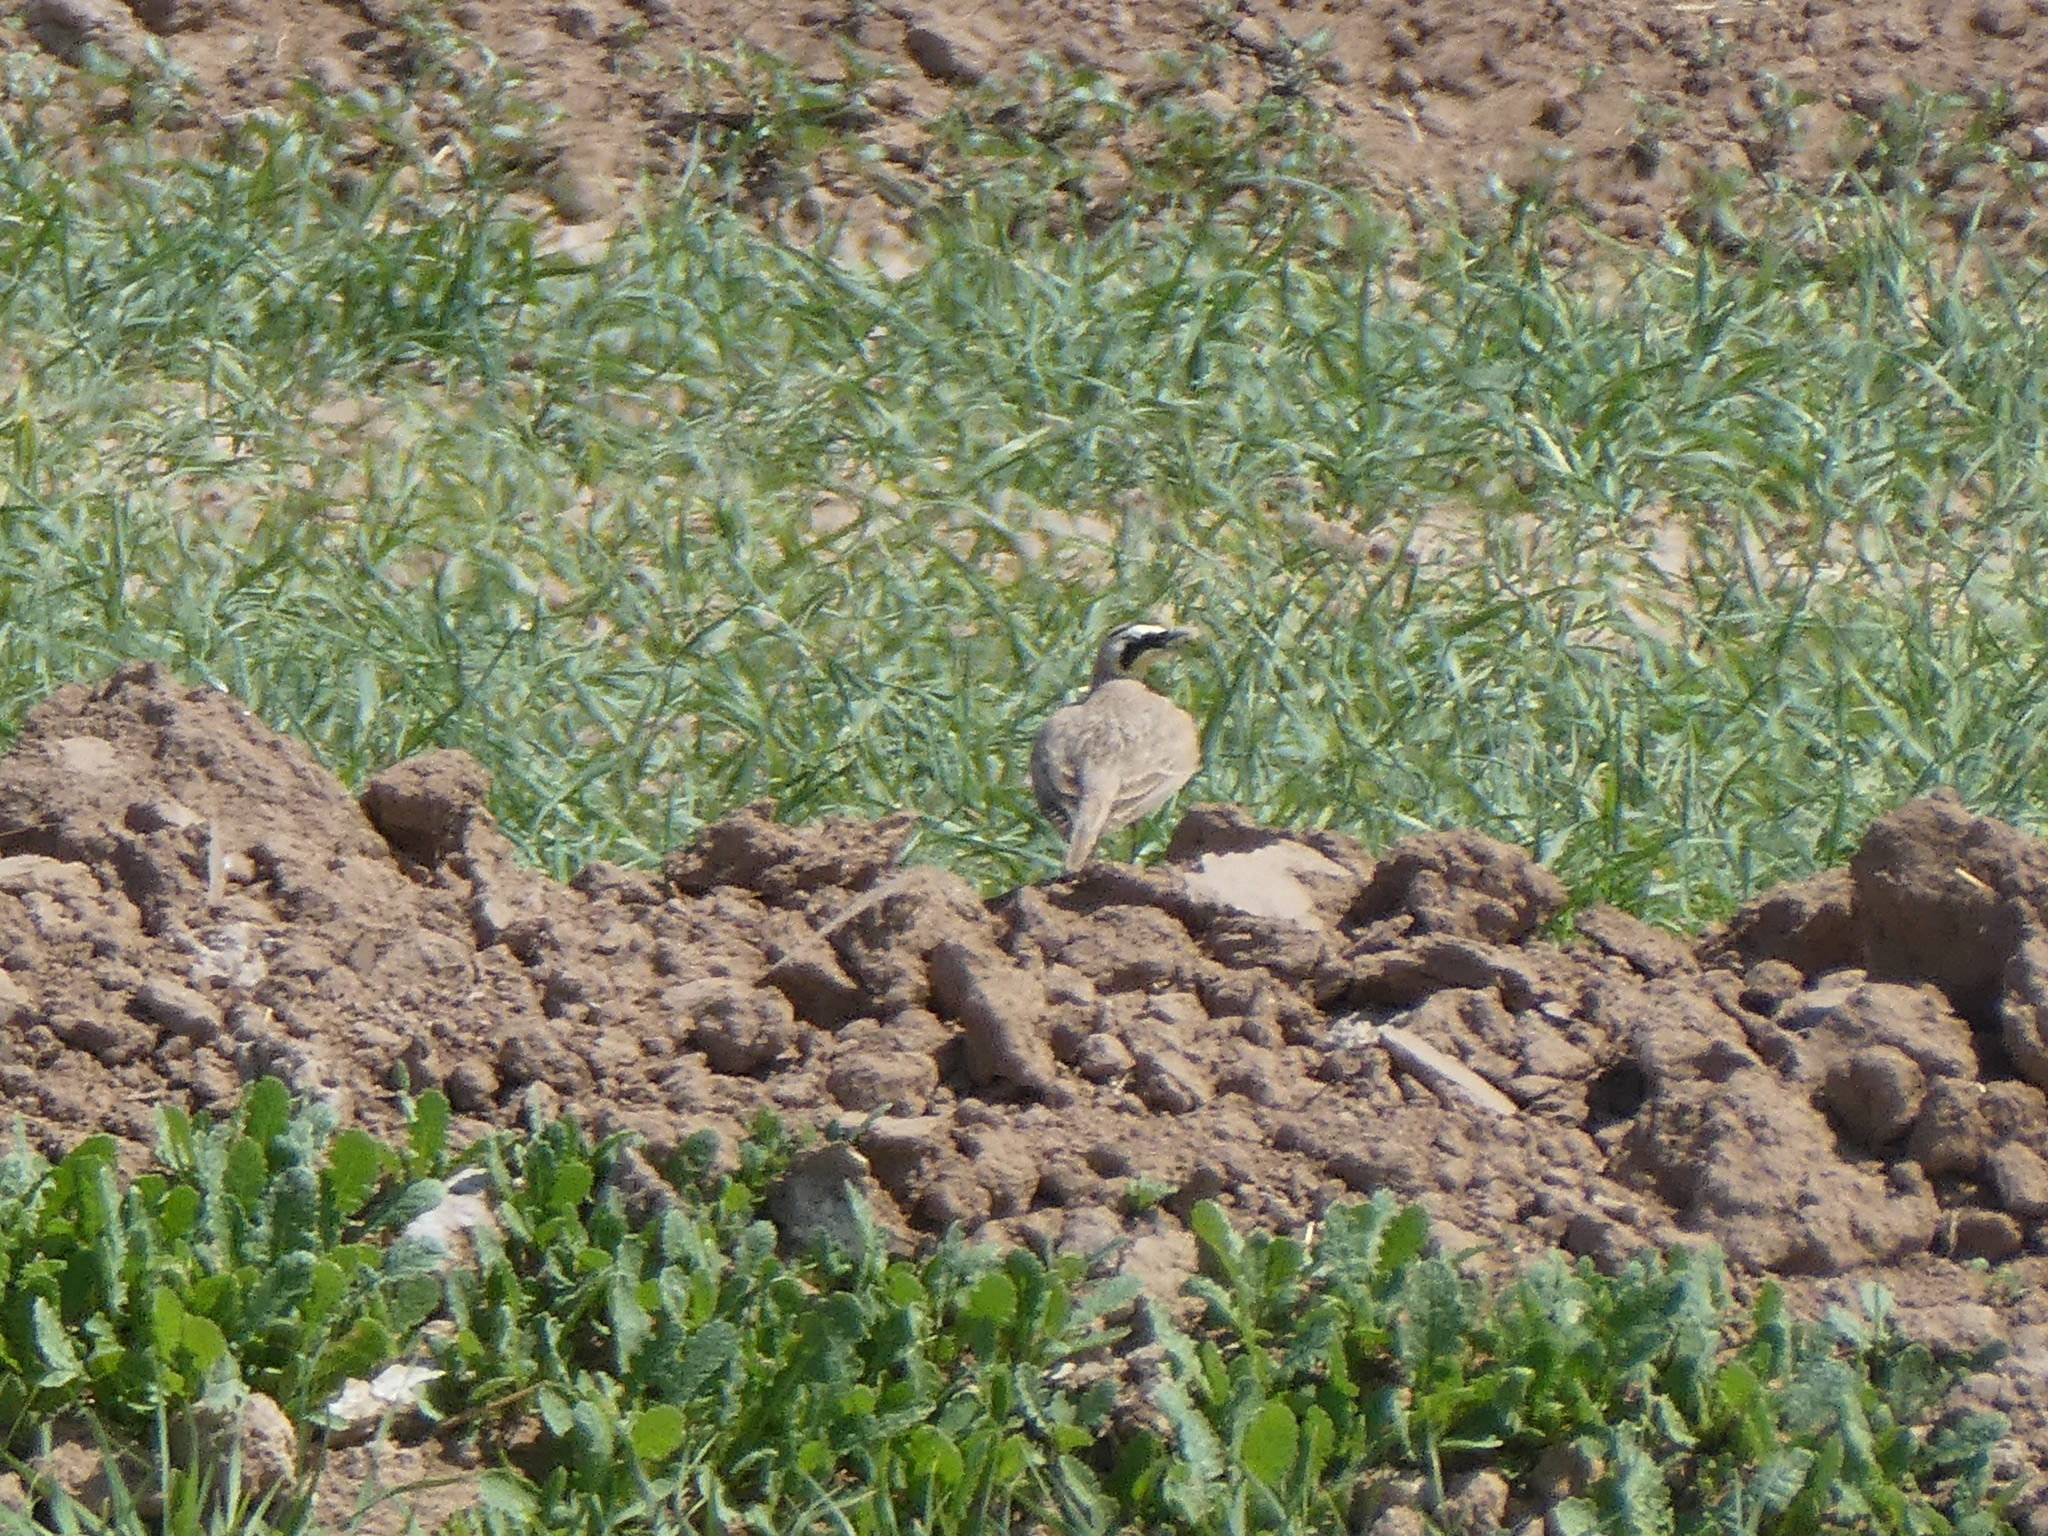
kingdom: Animalia
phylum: Chordata
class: Aves
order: Passeriformes
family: Alaudidae
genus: Eremophila
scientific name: Eremophila alpestris
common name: Horned lark
